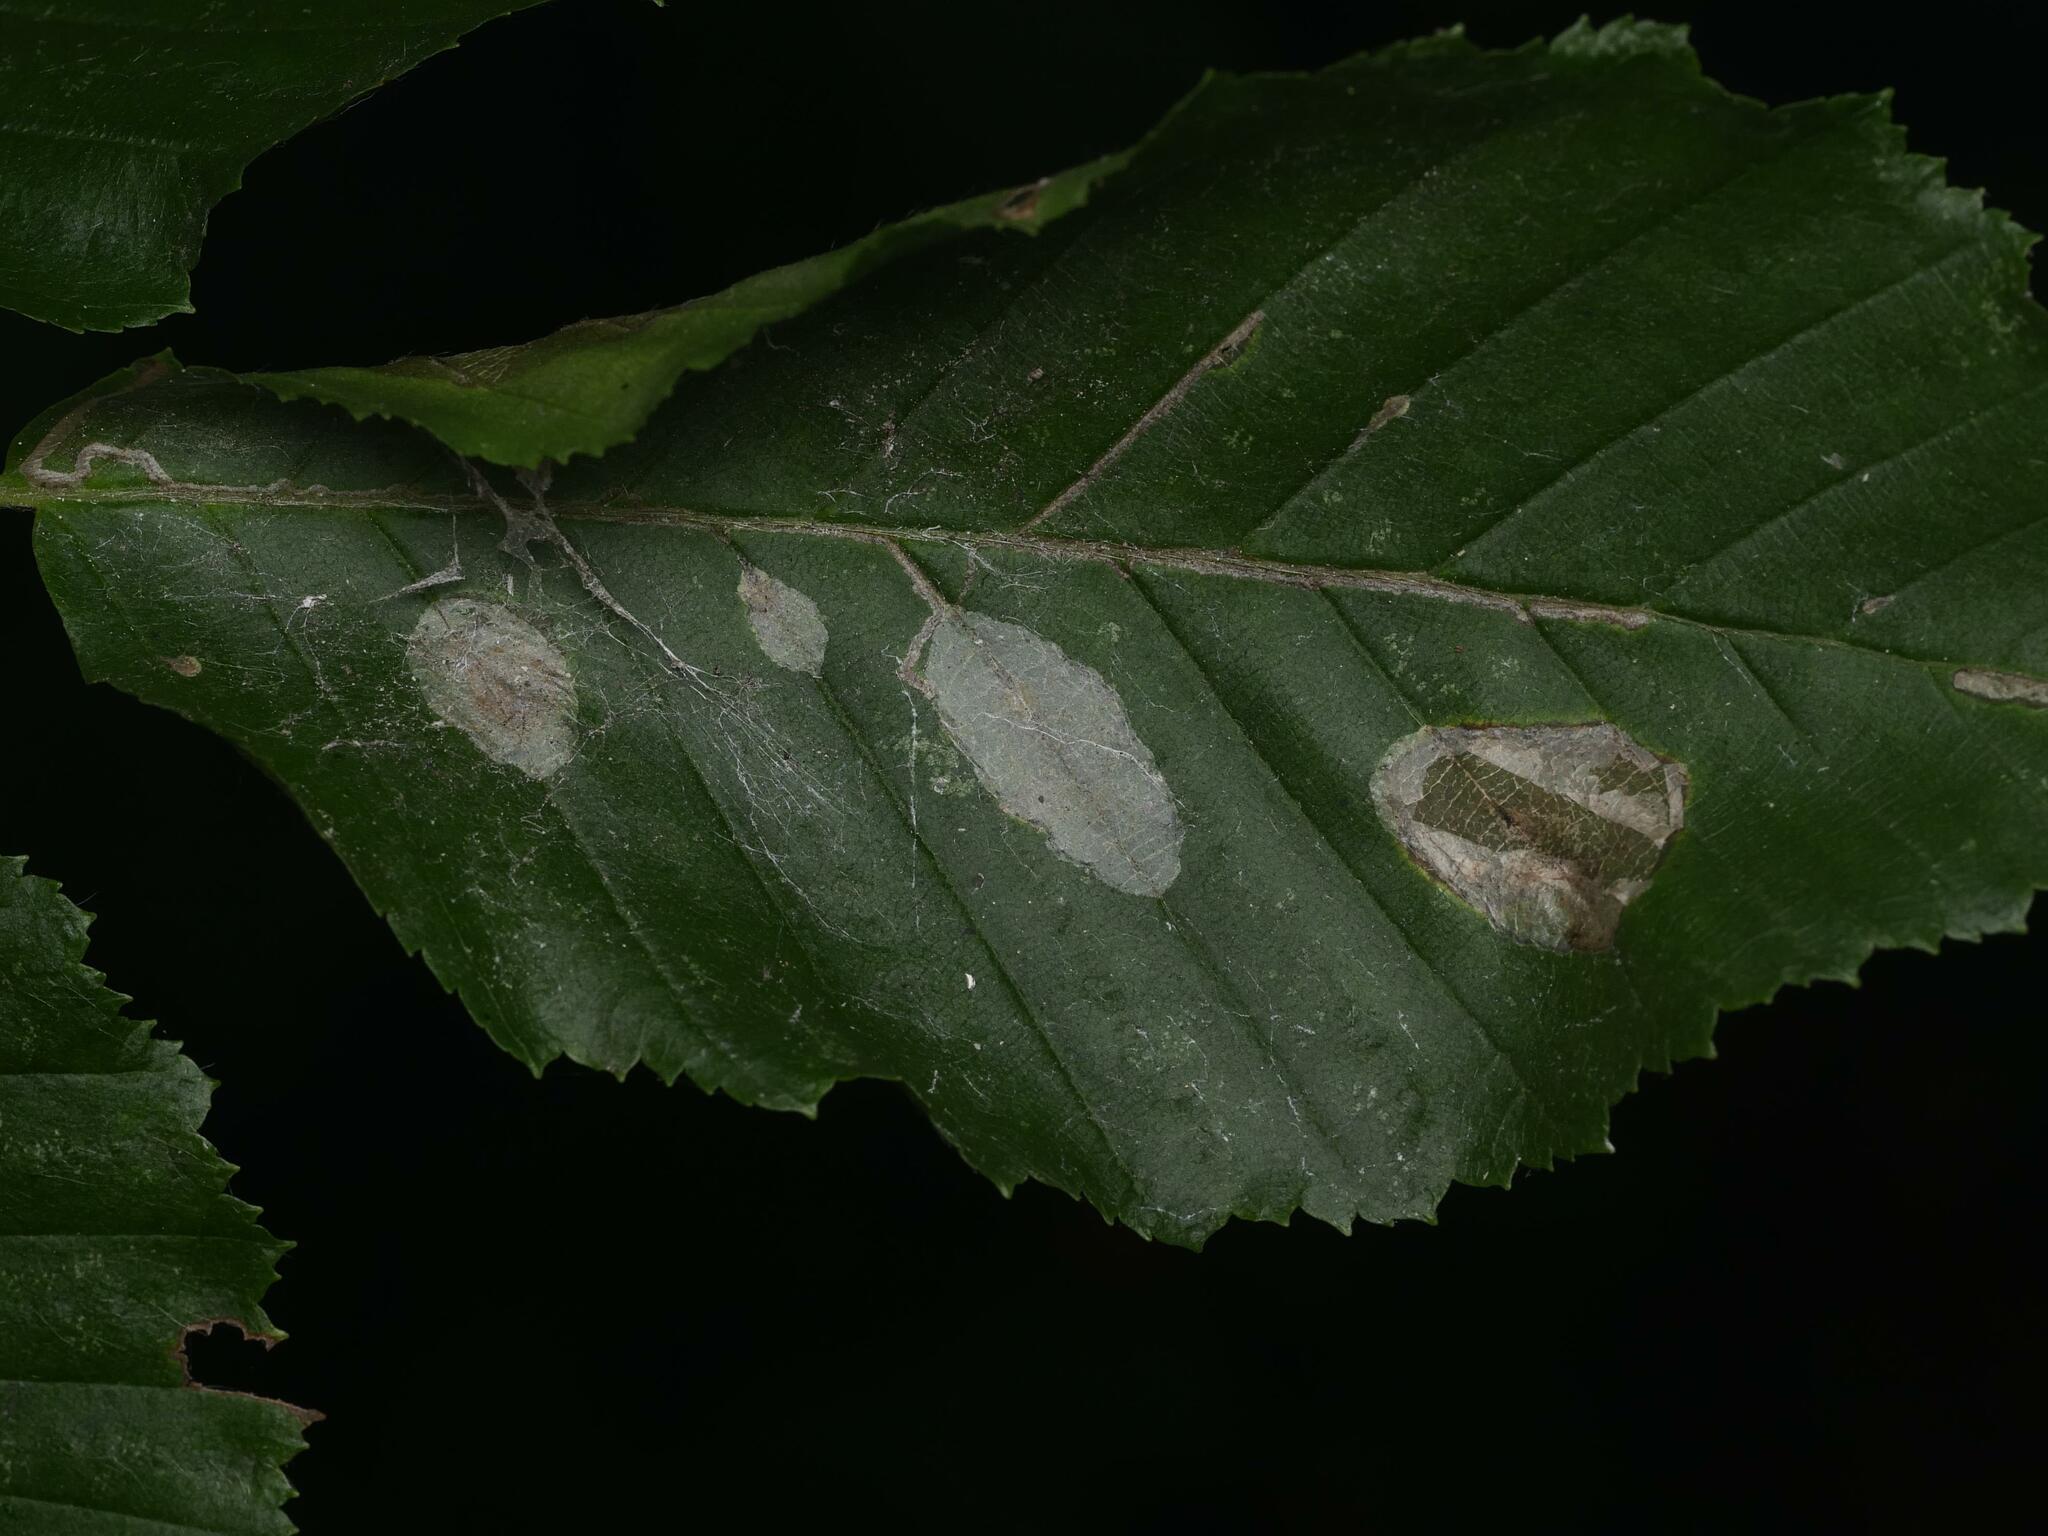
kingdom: Animalia
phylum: Arthropoda
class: Insecta
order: Lepidoptera
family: Gracillariidae
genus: Phyllonorycter
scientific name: Phyllonorycter esperella
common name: Dark hornbeam midget
